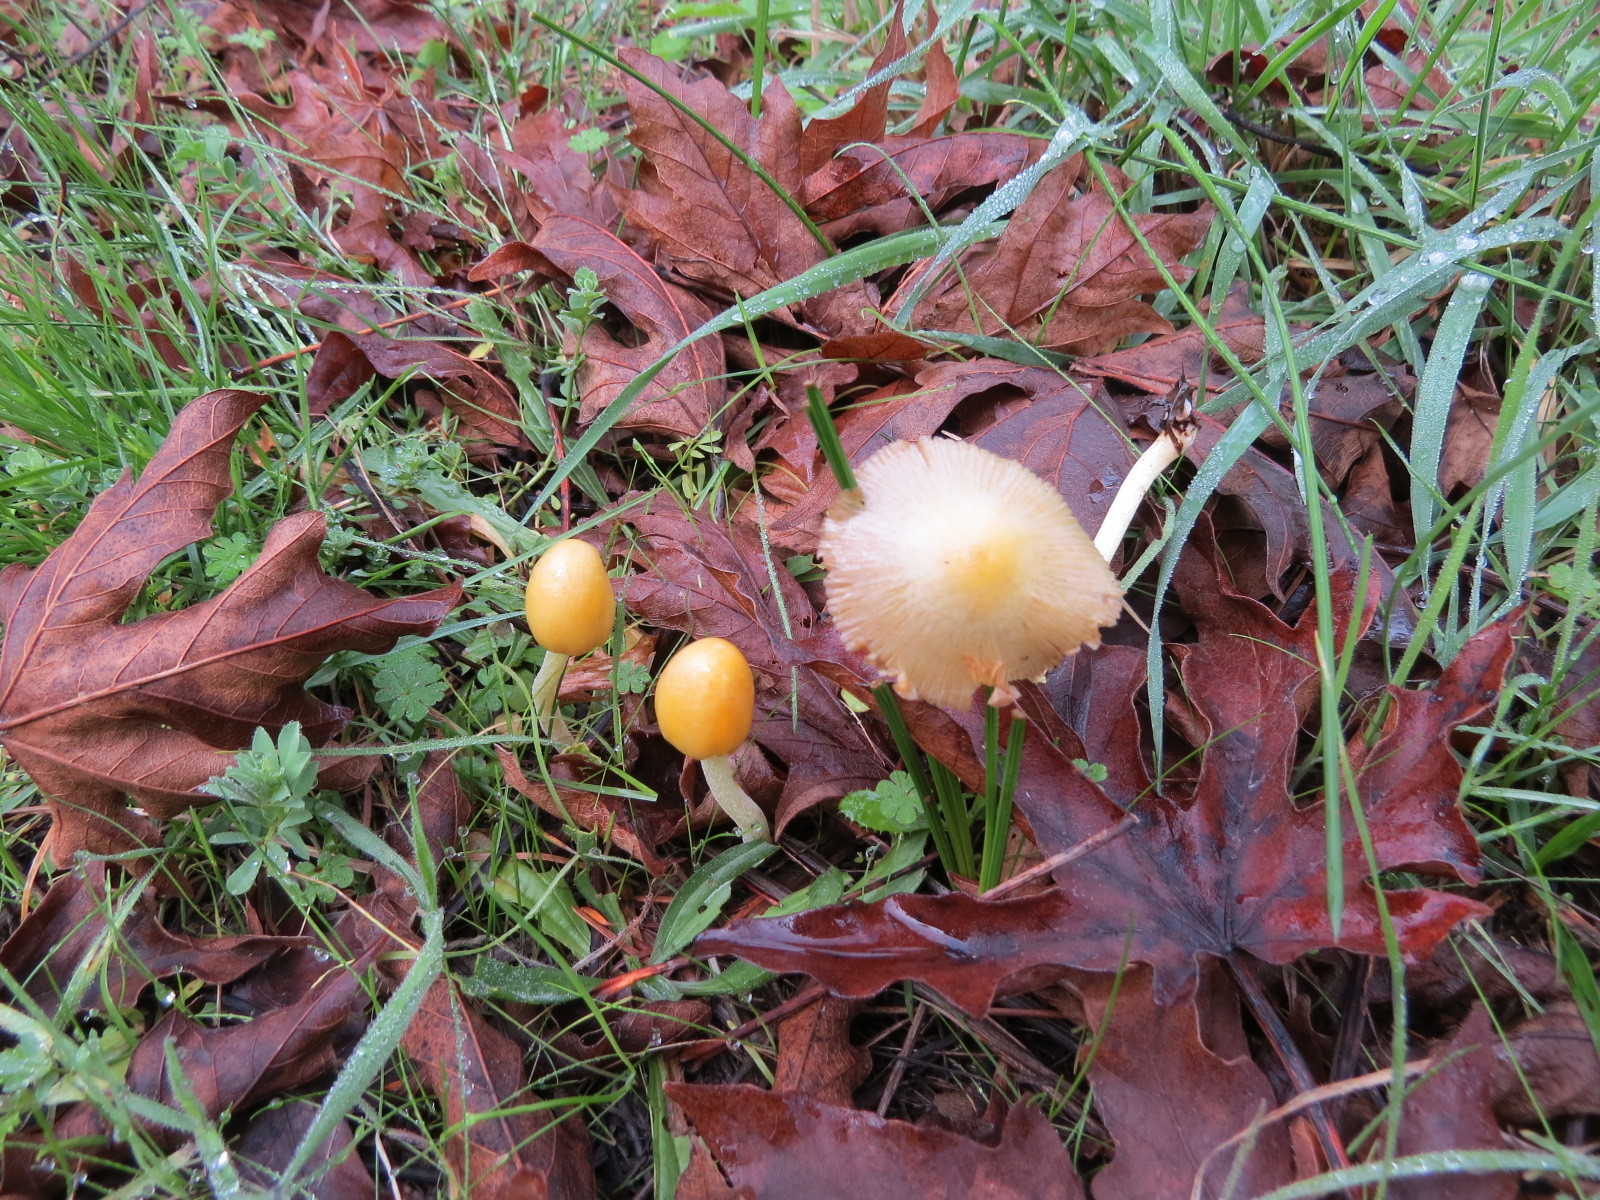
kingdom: Fungi
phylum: Basidiomycota
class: Agaricomycetes
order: Agaricales
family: Bolbitiaceae
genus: Bolbitius
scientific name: Bolbitius titubans
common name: Yellow fieldcap
